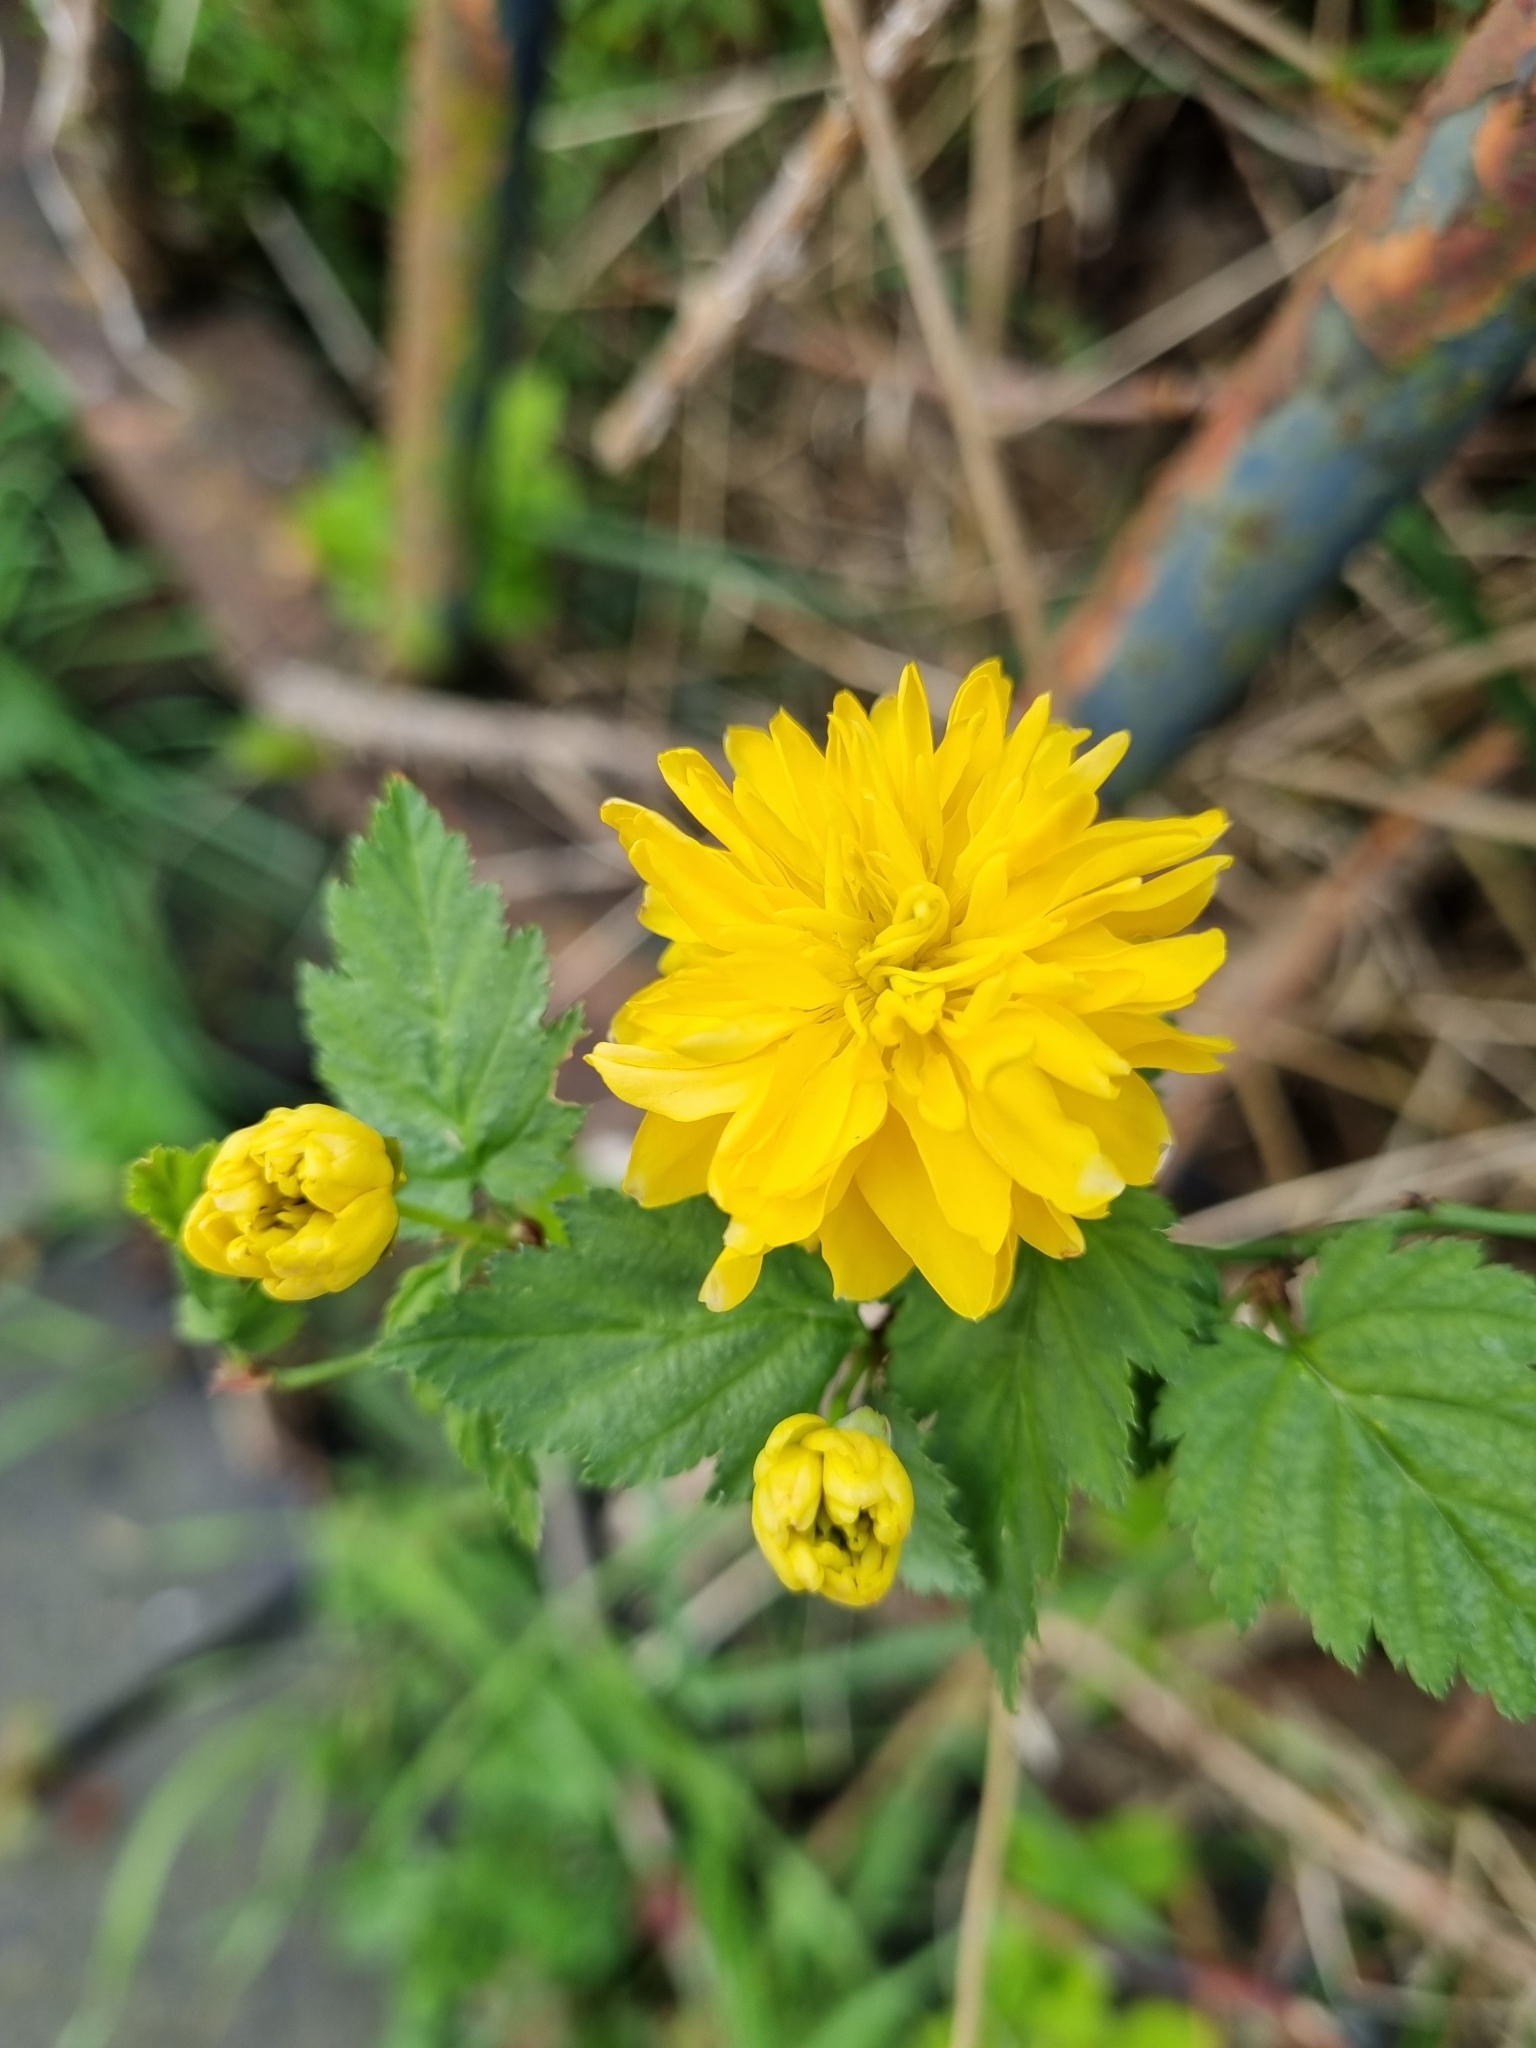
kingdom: Plantae
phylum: Tracheophyta
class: Magnoliopsida
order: Rosales
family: Rosaceae
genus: Kerria
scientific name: Kerria japonica
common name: Japanese kerria
